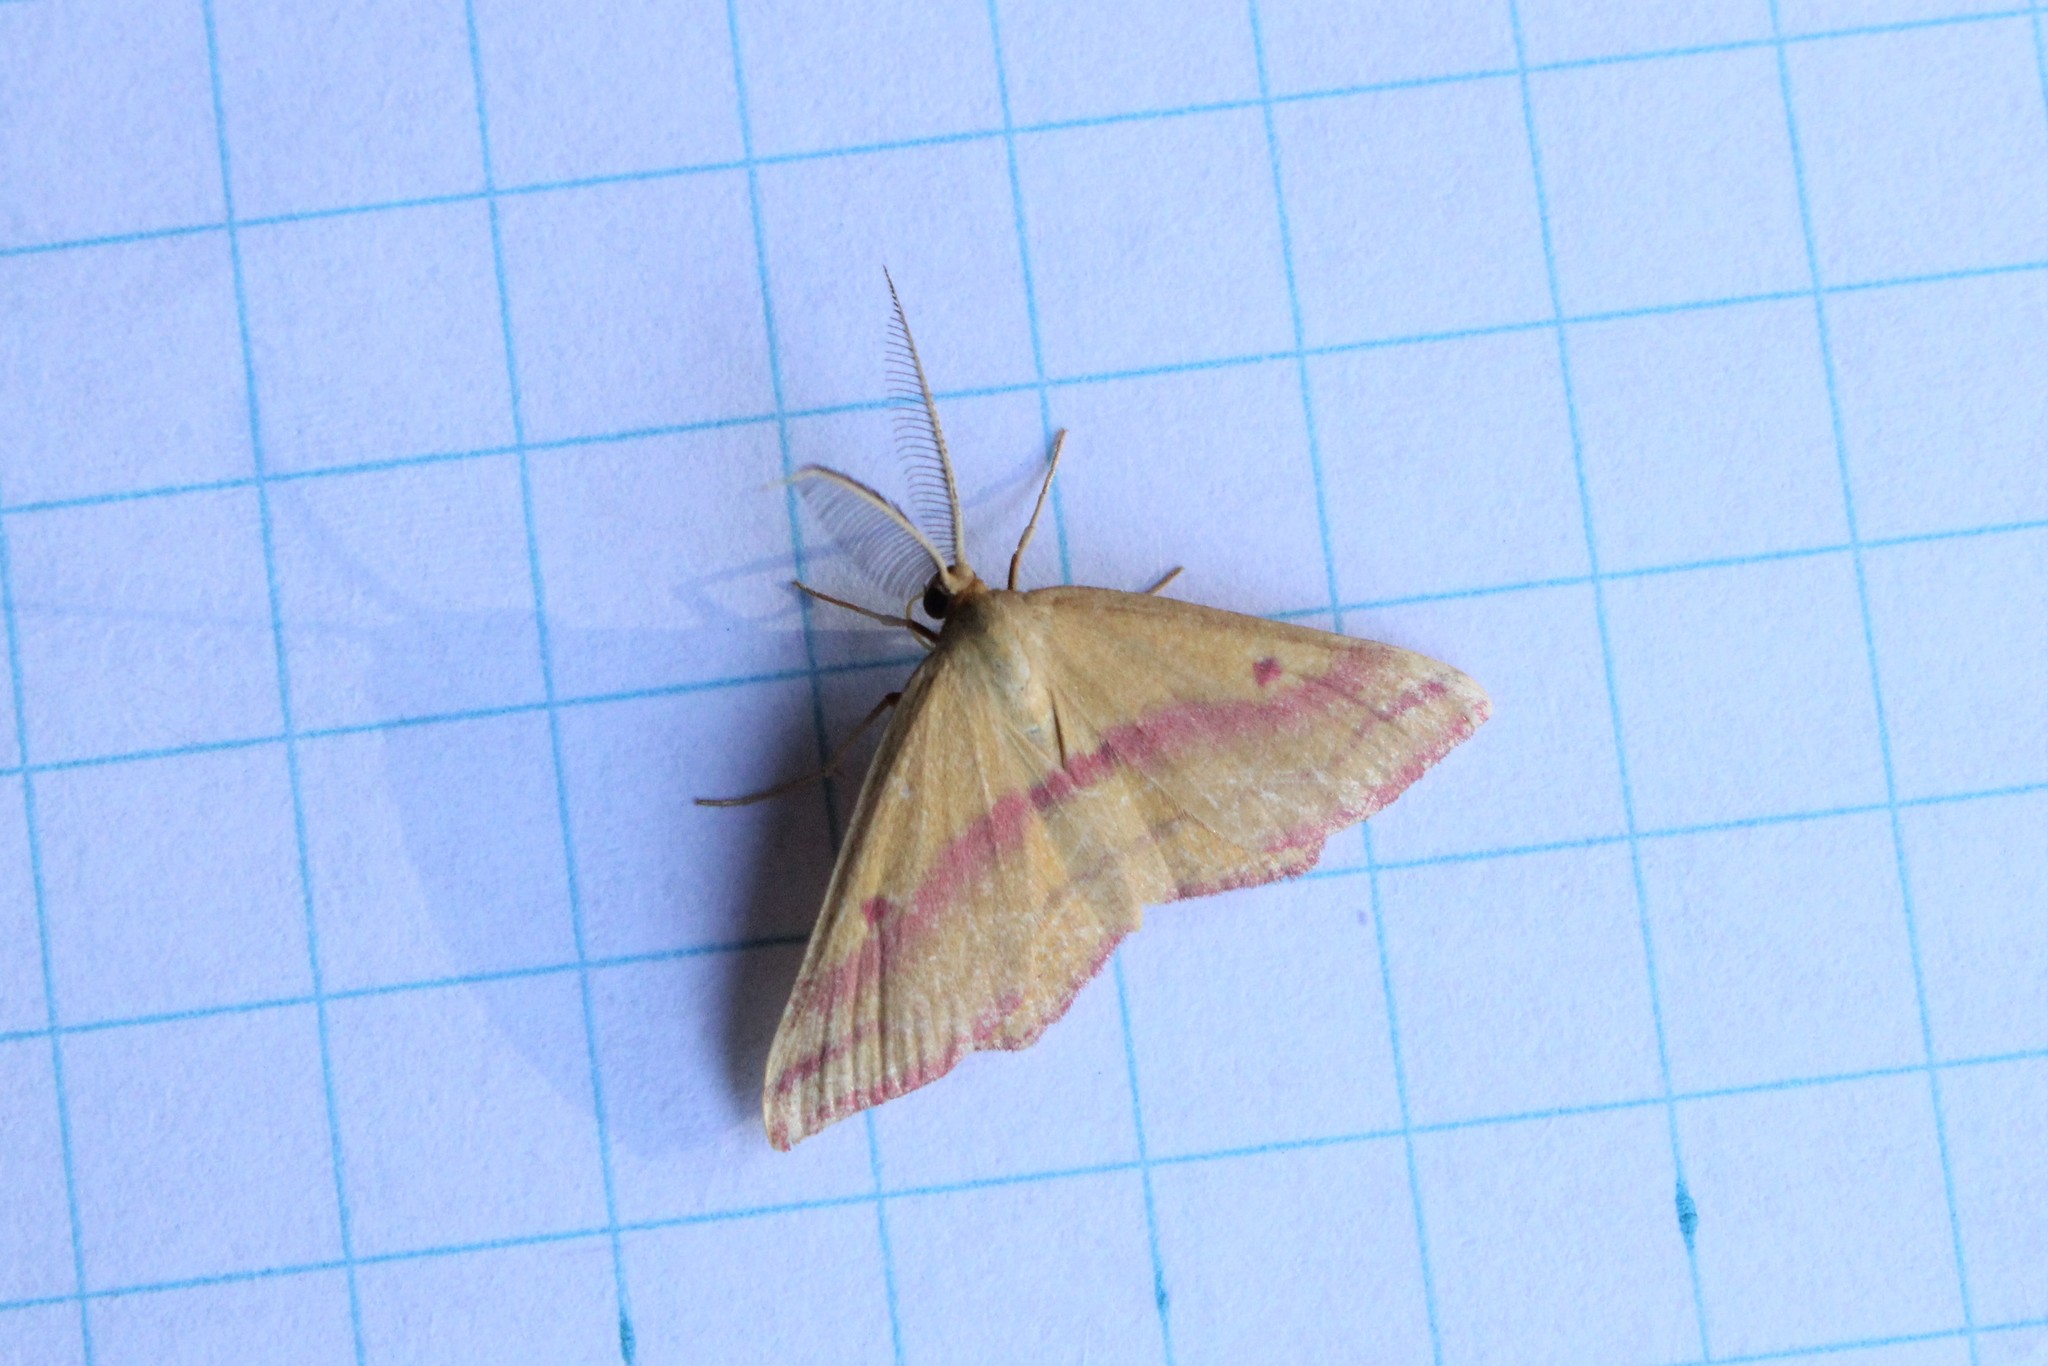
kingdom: Animalia
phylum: Arthropoda
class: Insecta
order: Lepidoptera
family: Geometridae
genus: Haematopis
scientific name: Haematopis grataria
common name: Chickweed geometer
